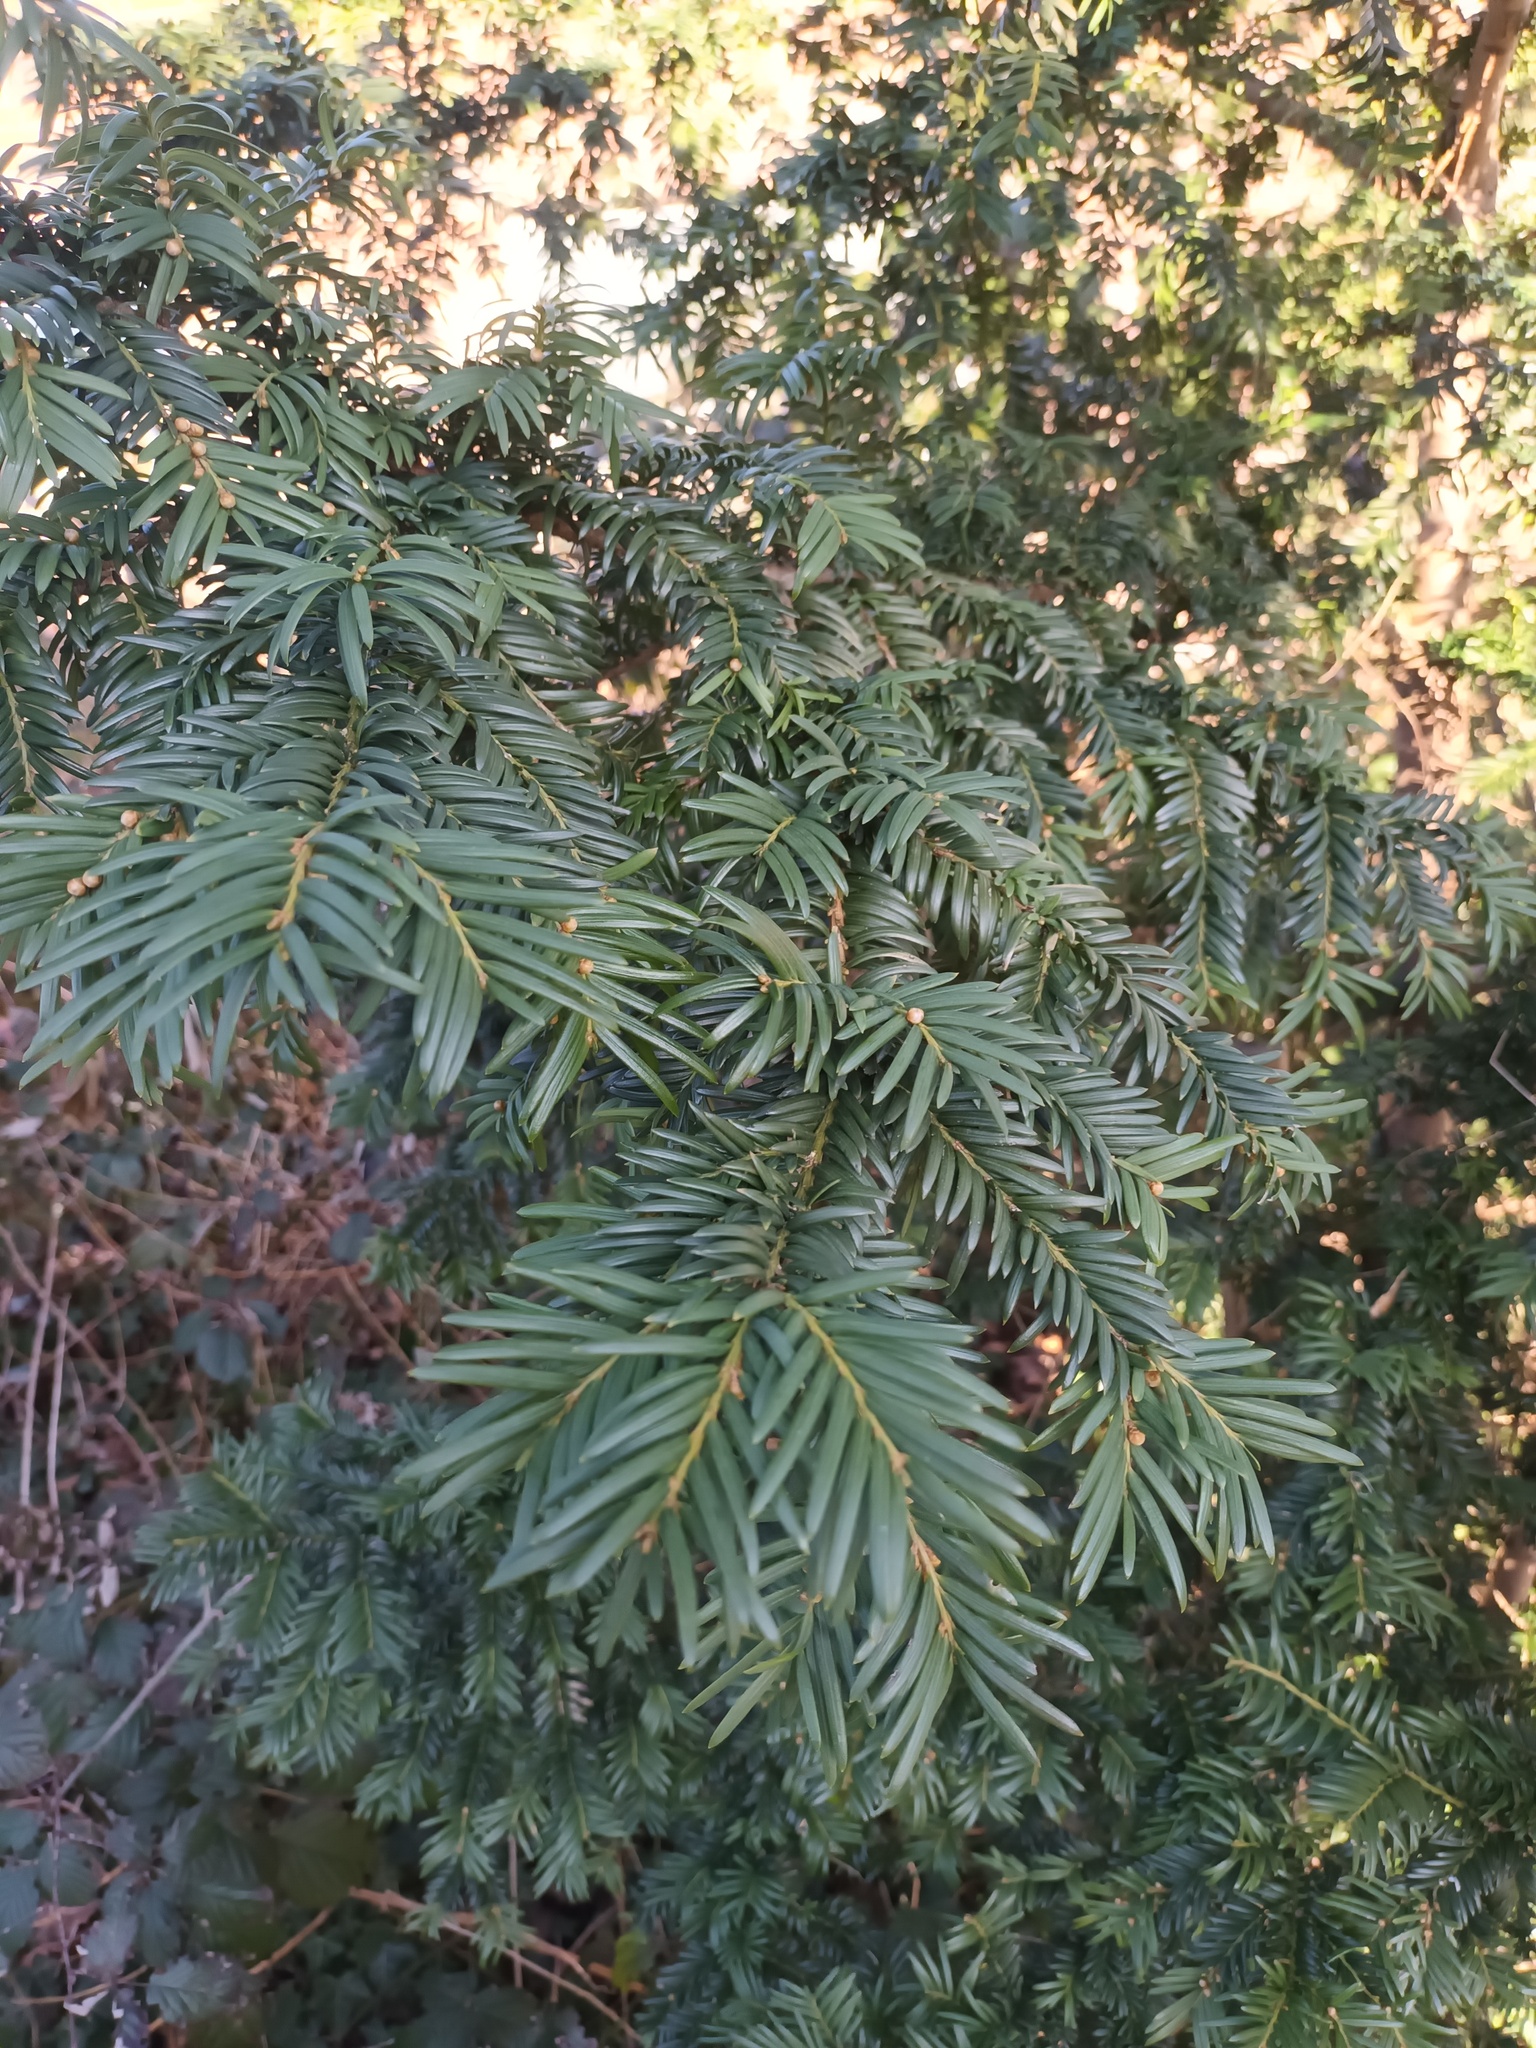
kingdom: Plantae
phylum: Tracheophyta
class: Pinopsida
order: Pinales
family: Taxaceae
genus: Taxus
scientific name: Taxus baccata
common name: Yew
